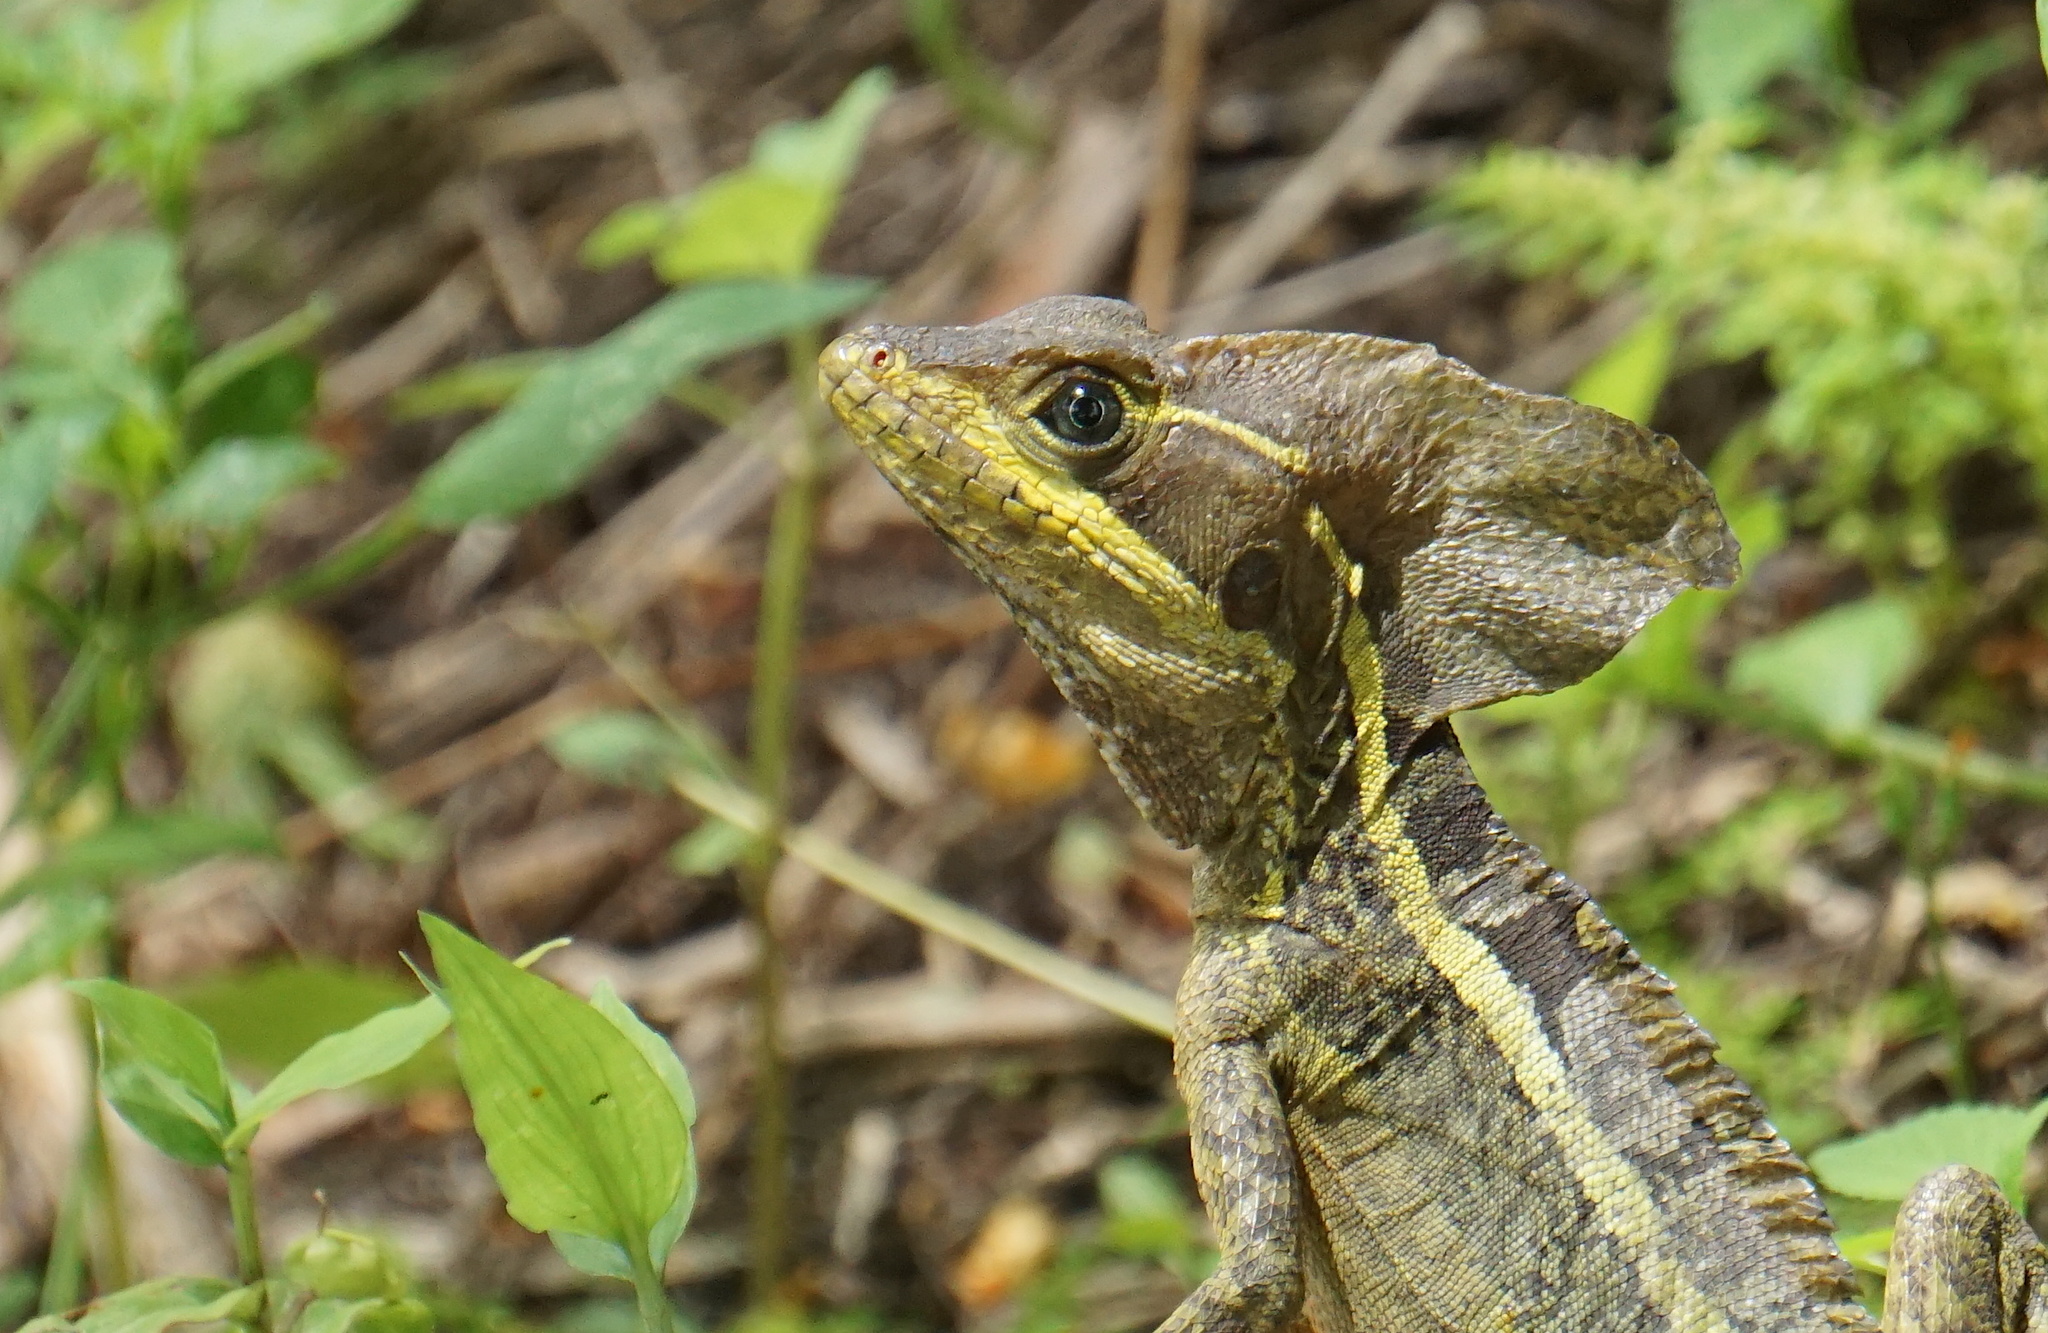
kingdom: Animalia
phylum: Chordata
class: Squamata
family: Corytophanidae
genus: Basiliscus
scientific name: Basiliscus vittatus
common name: Brown basilisk
